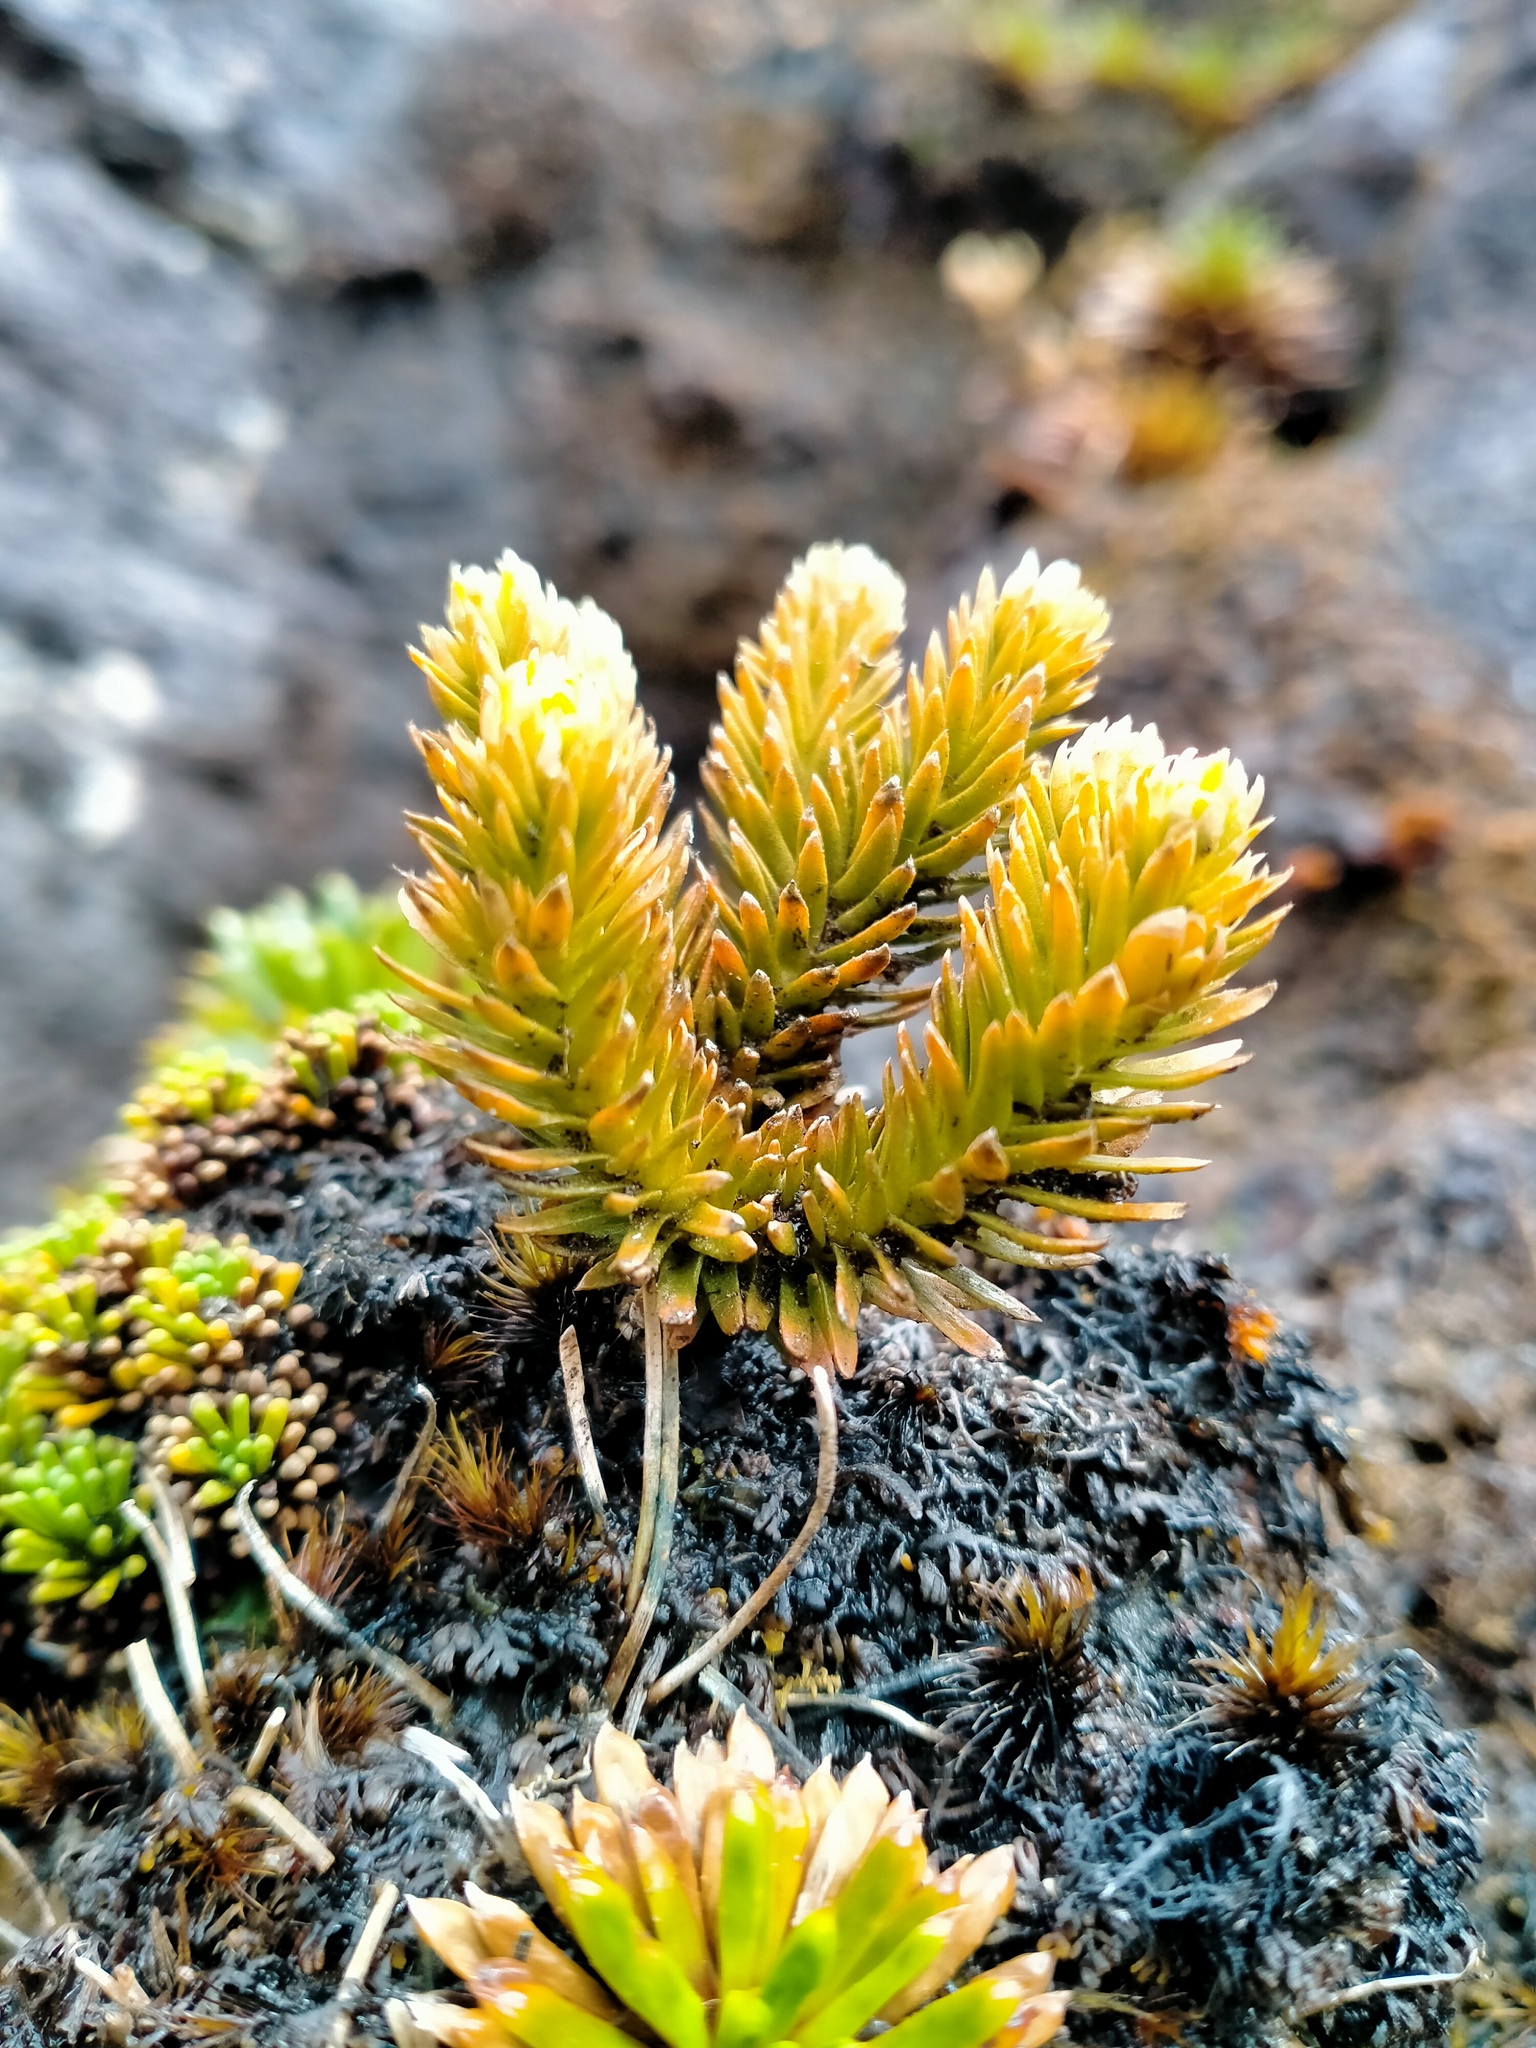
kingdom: Plantae
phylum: Tracheophyta
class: Lycopodiopsida
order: Lycopodiales
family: Lycopodiaceae
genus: Huperzia
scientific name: Huperzia australiana
